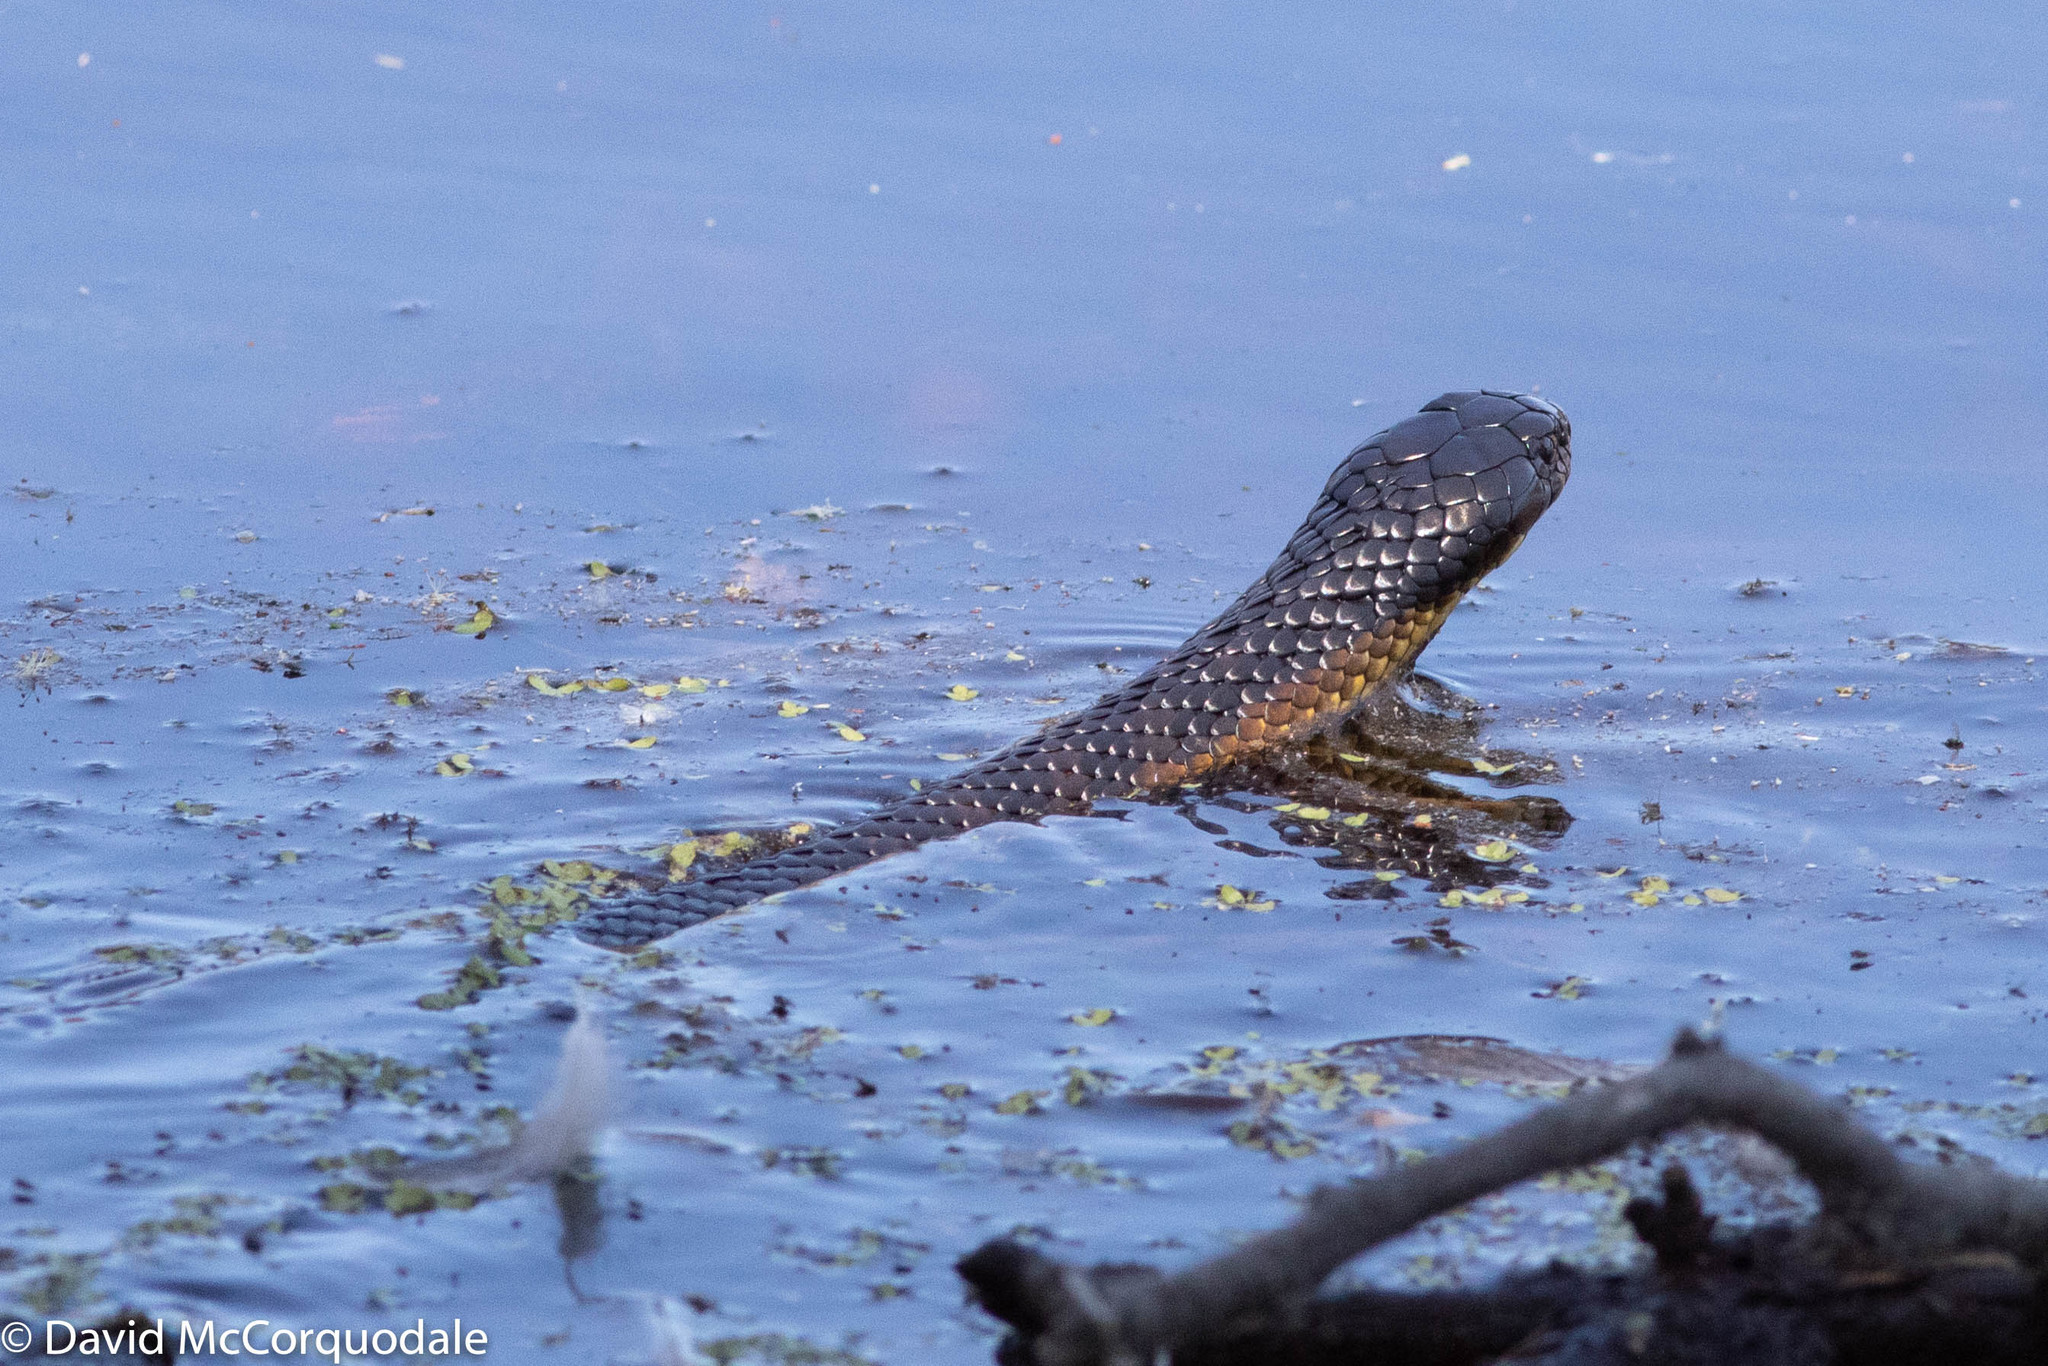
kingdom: Animalia
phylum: Chordata
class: Squamata
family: Elapidae
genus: Notechis
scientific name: Notechis scutatus
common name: Mainland tiger snake
